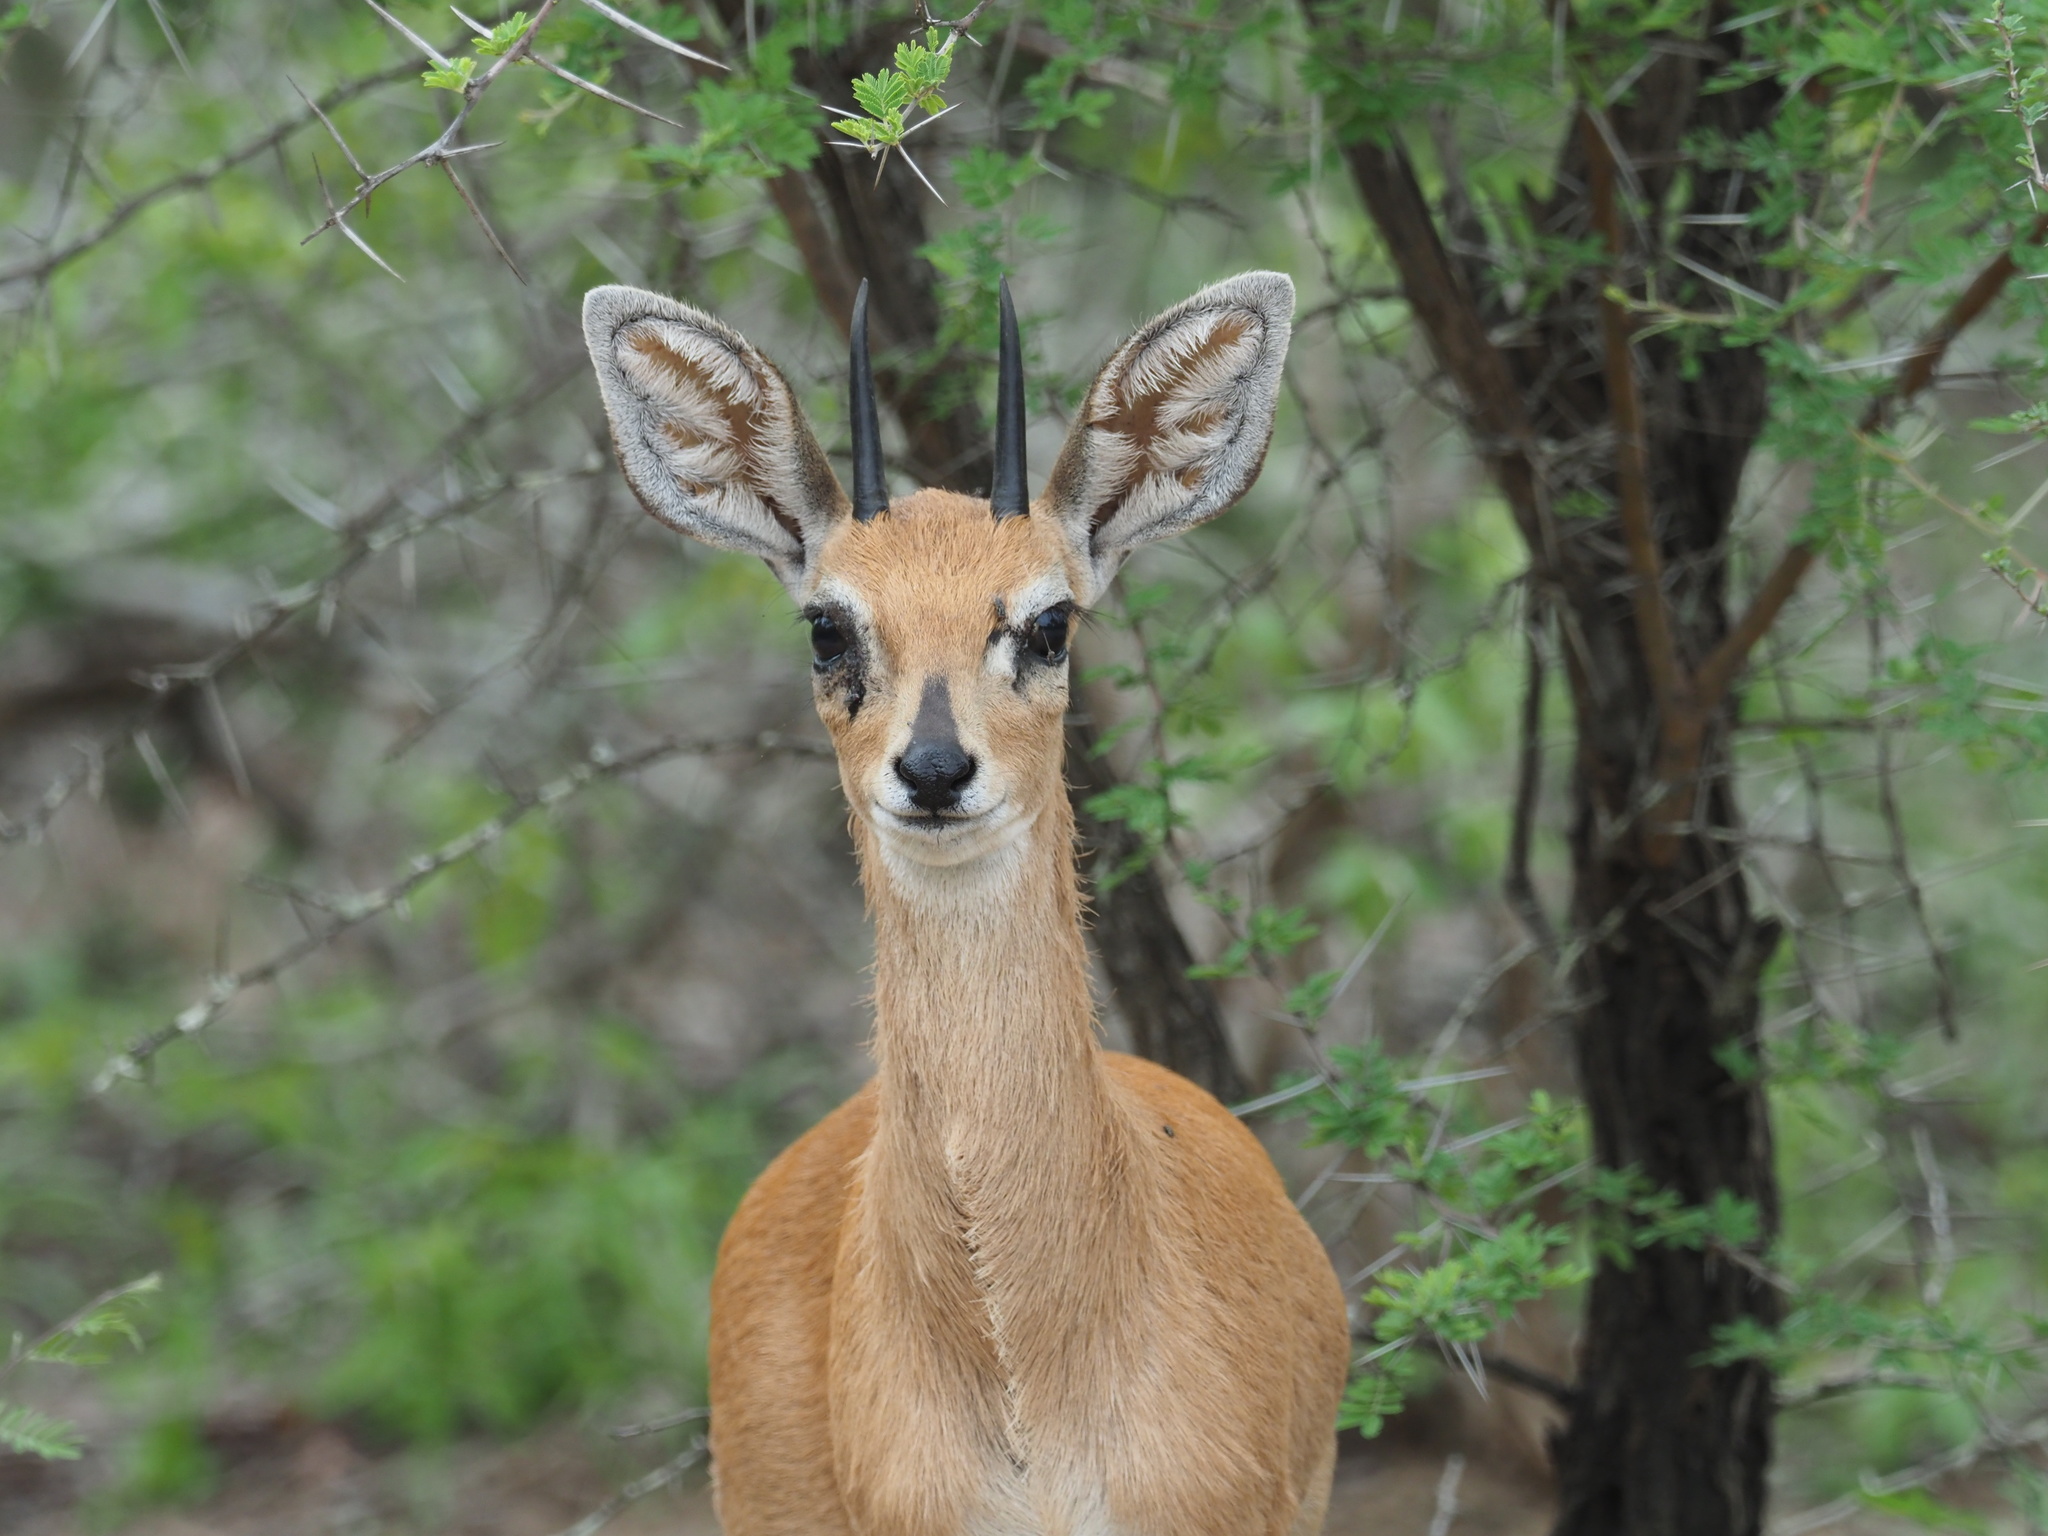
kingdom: Animalia
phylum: Chordata
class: Mammalia
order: Artiodactyla
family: Bovidae
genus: Raphicerus
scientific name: Raphicerus campestris
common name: Steenbok
